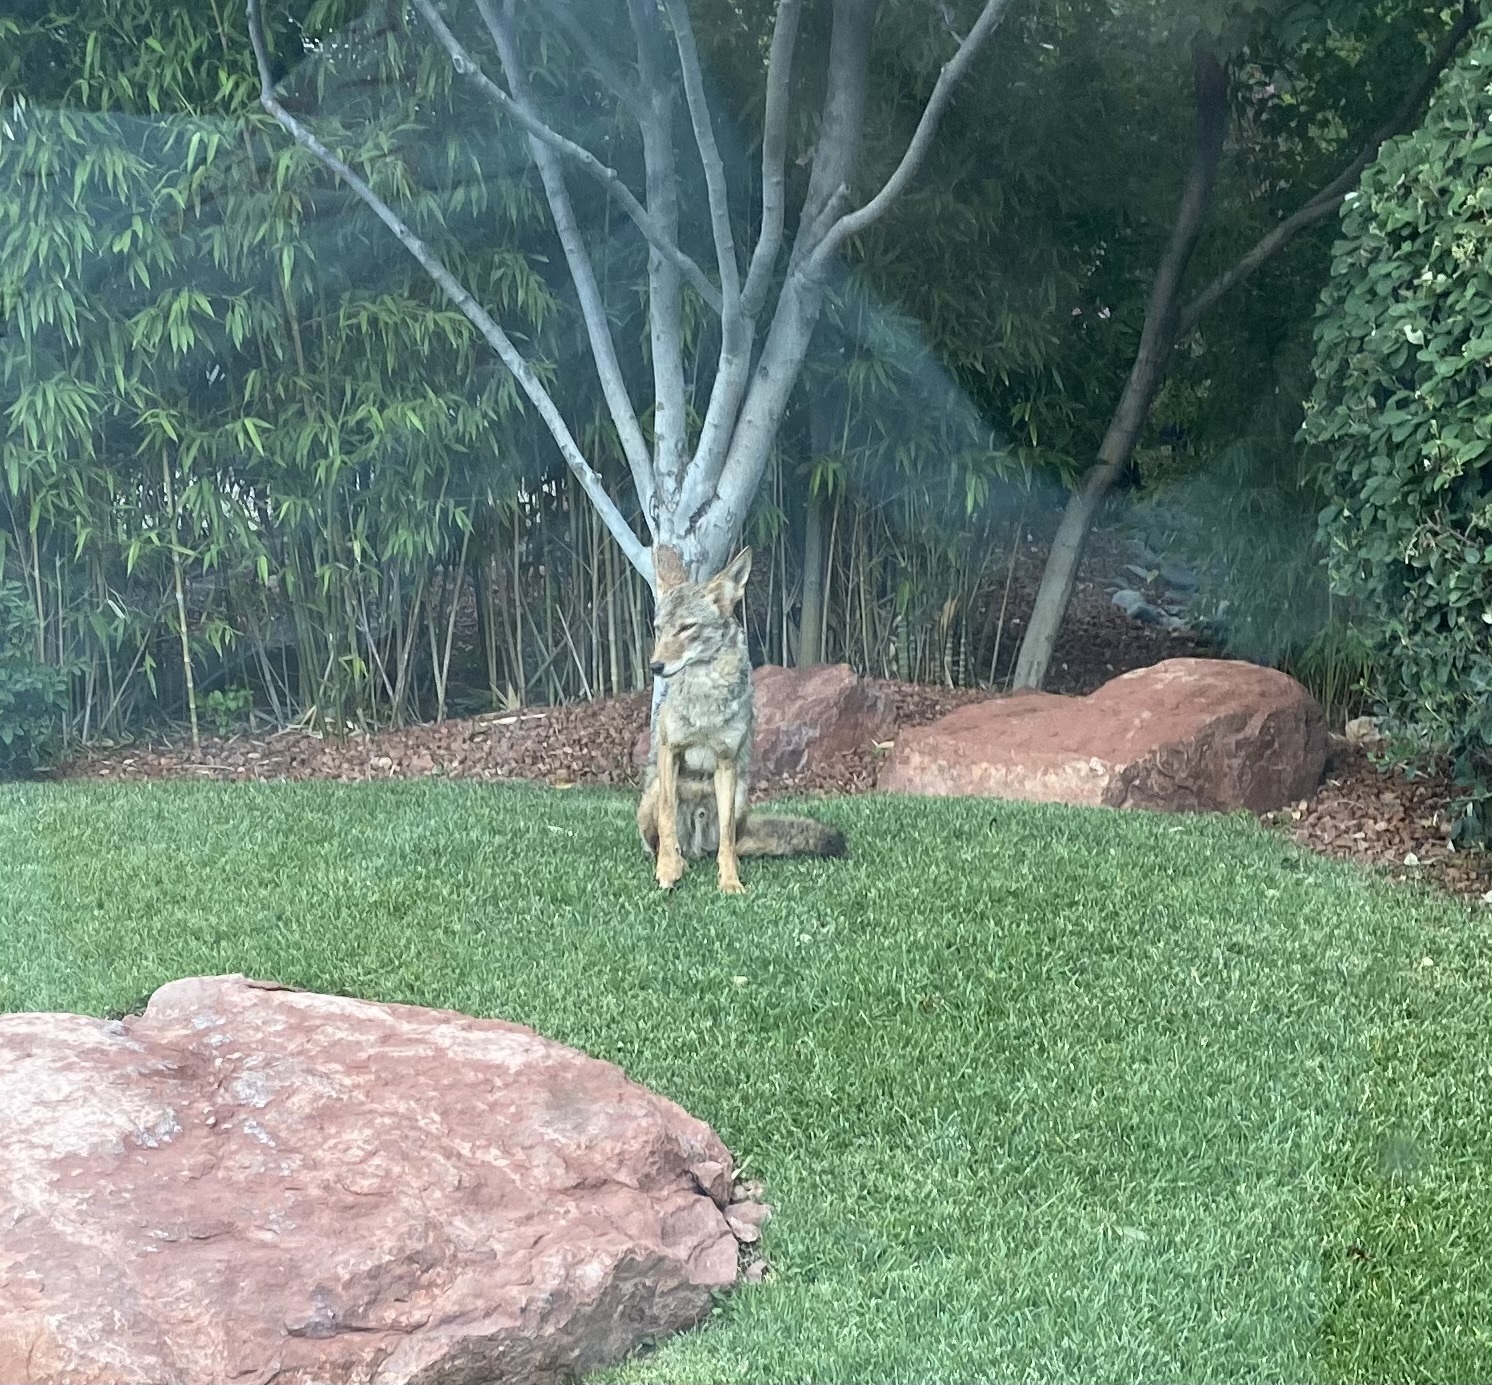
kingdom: Animalia
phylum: Chordata
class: Mammalia
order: Carnivora
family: Canidae
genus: Canis
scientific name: Canis latrans
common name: Coyote
